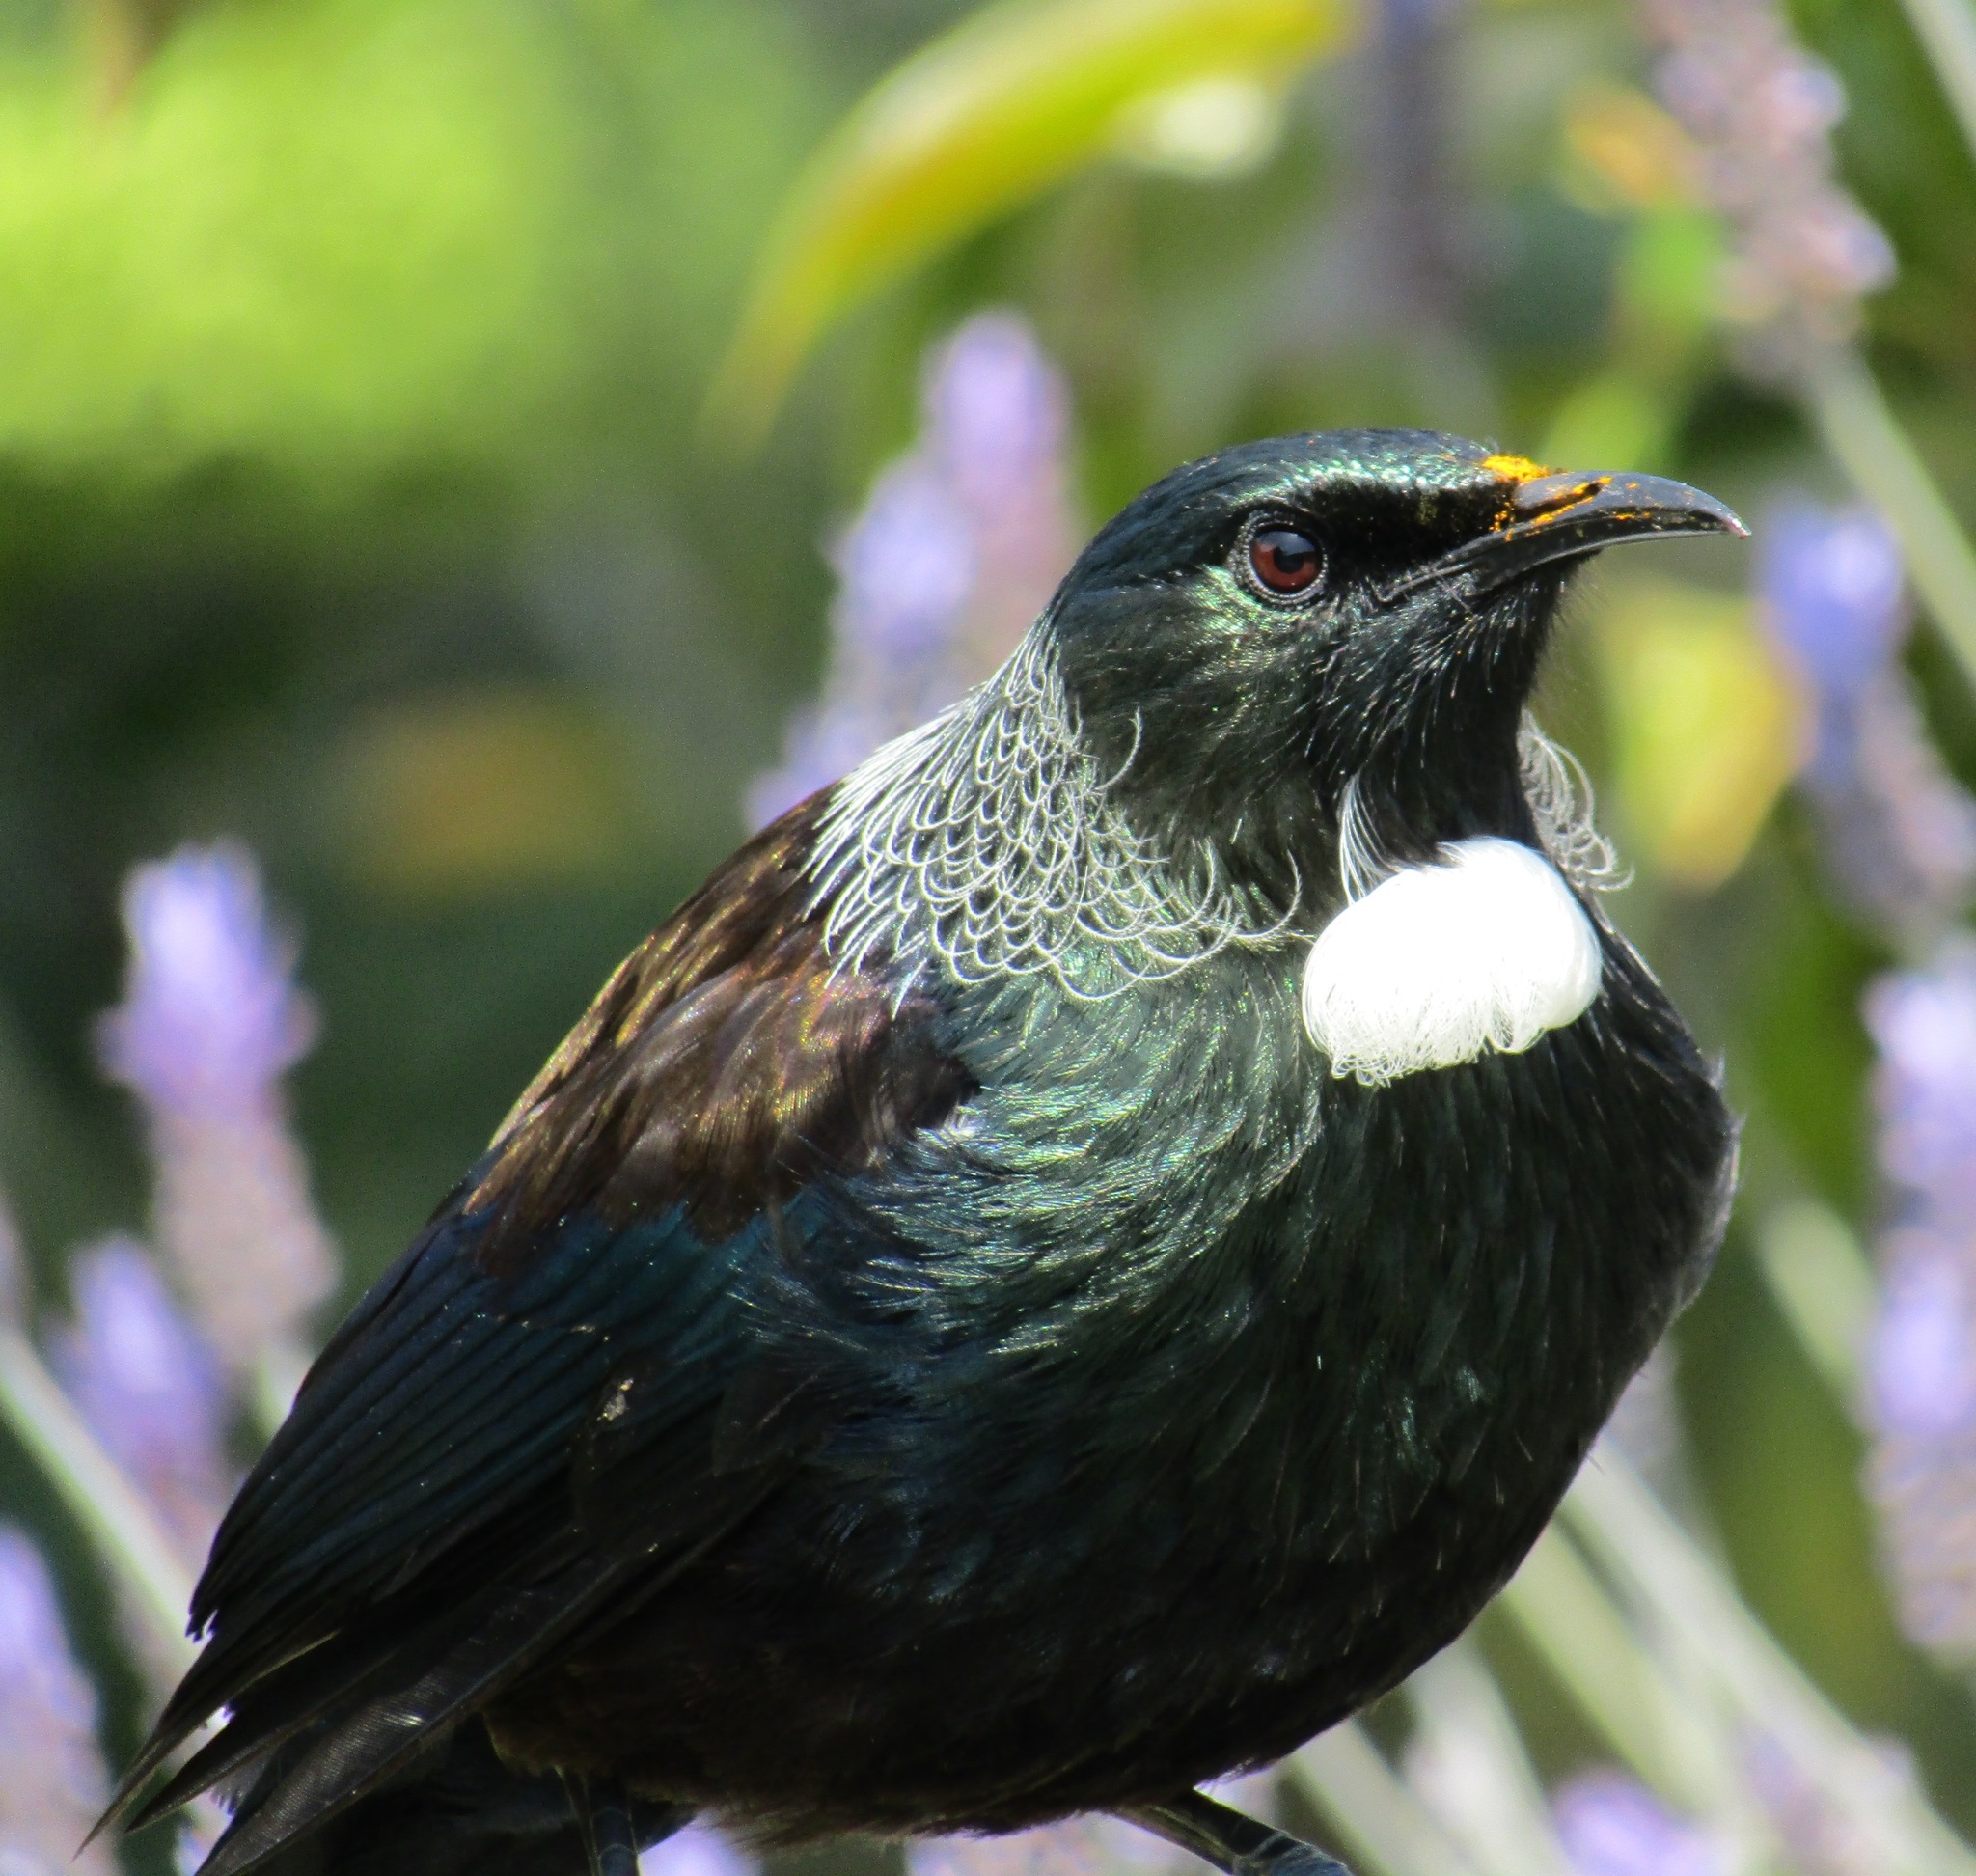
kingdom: Animalia
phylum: Chordata
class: Aves
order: Passeriformes
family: Meliphagidae
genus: Prosthemadera
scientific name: Prosthemadera novaeseelandiae
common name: Tui
